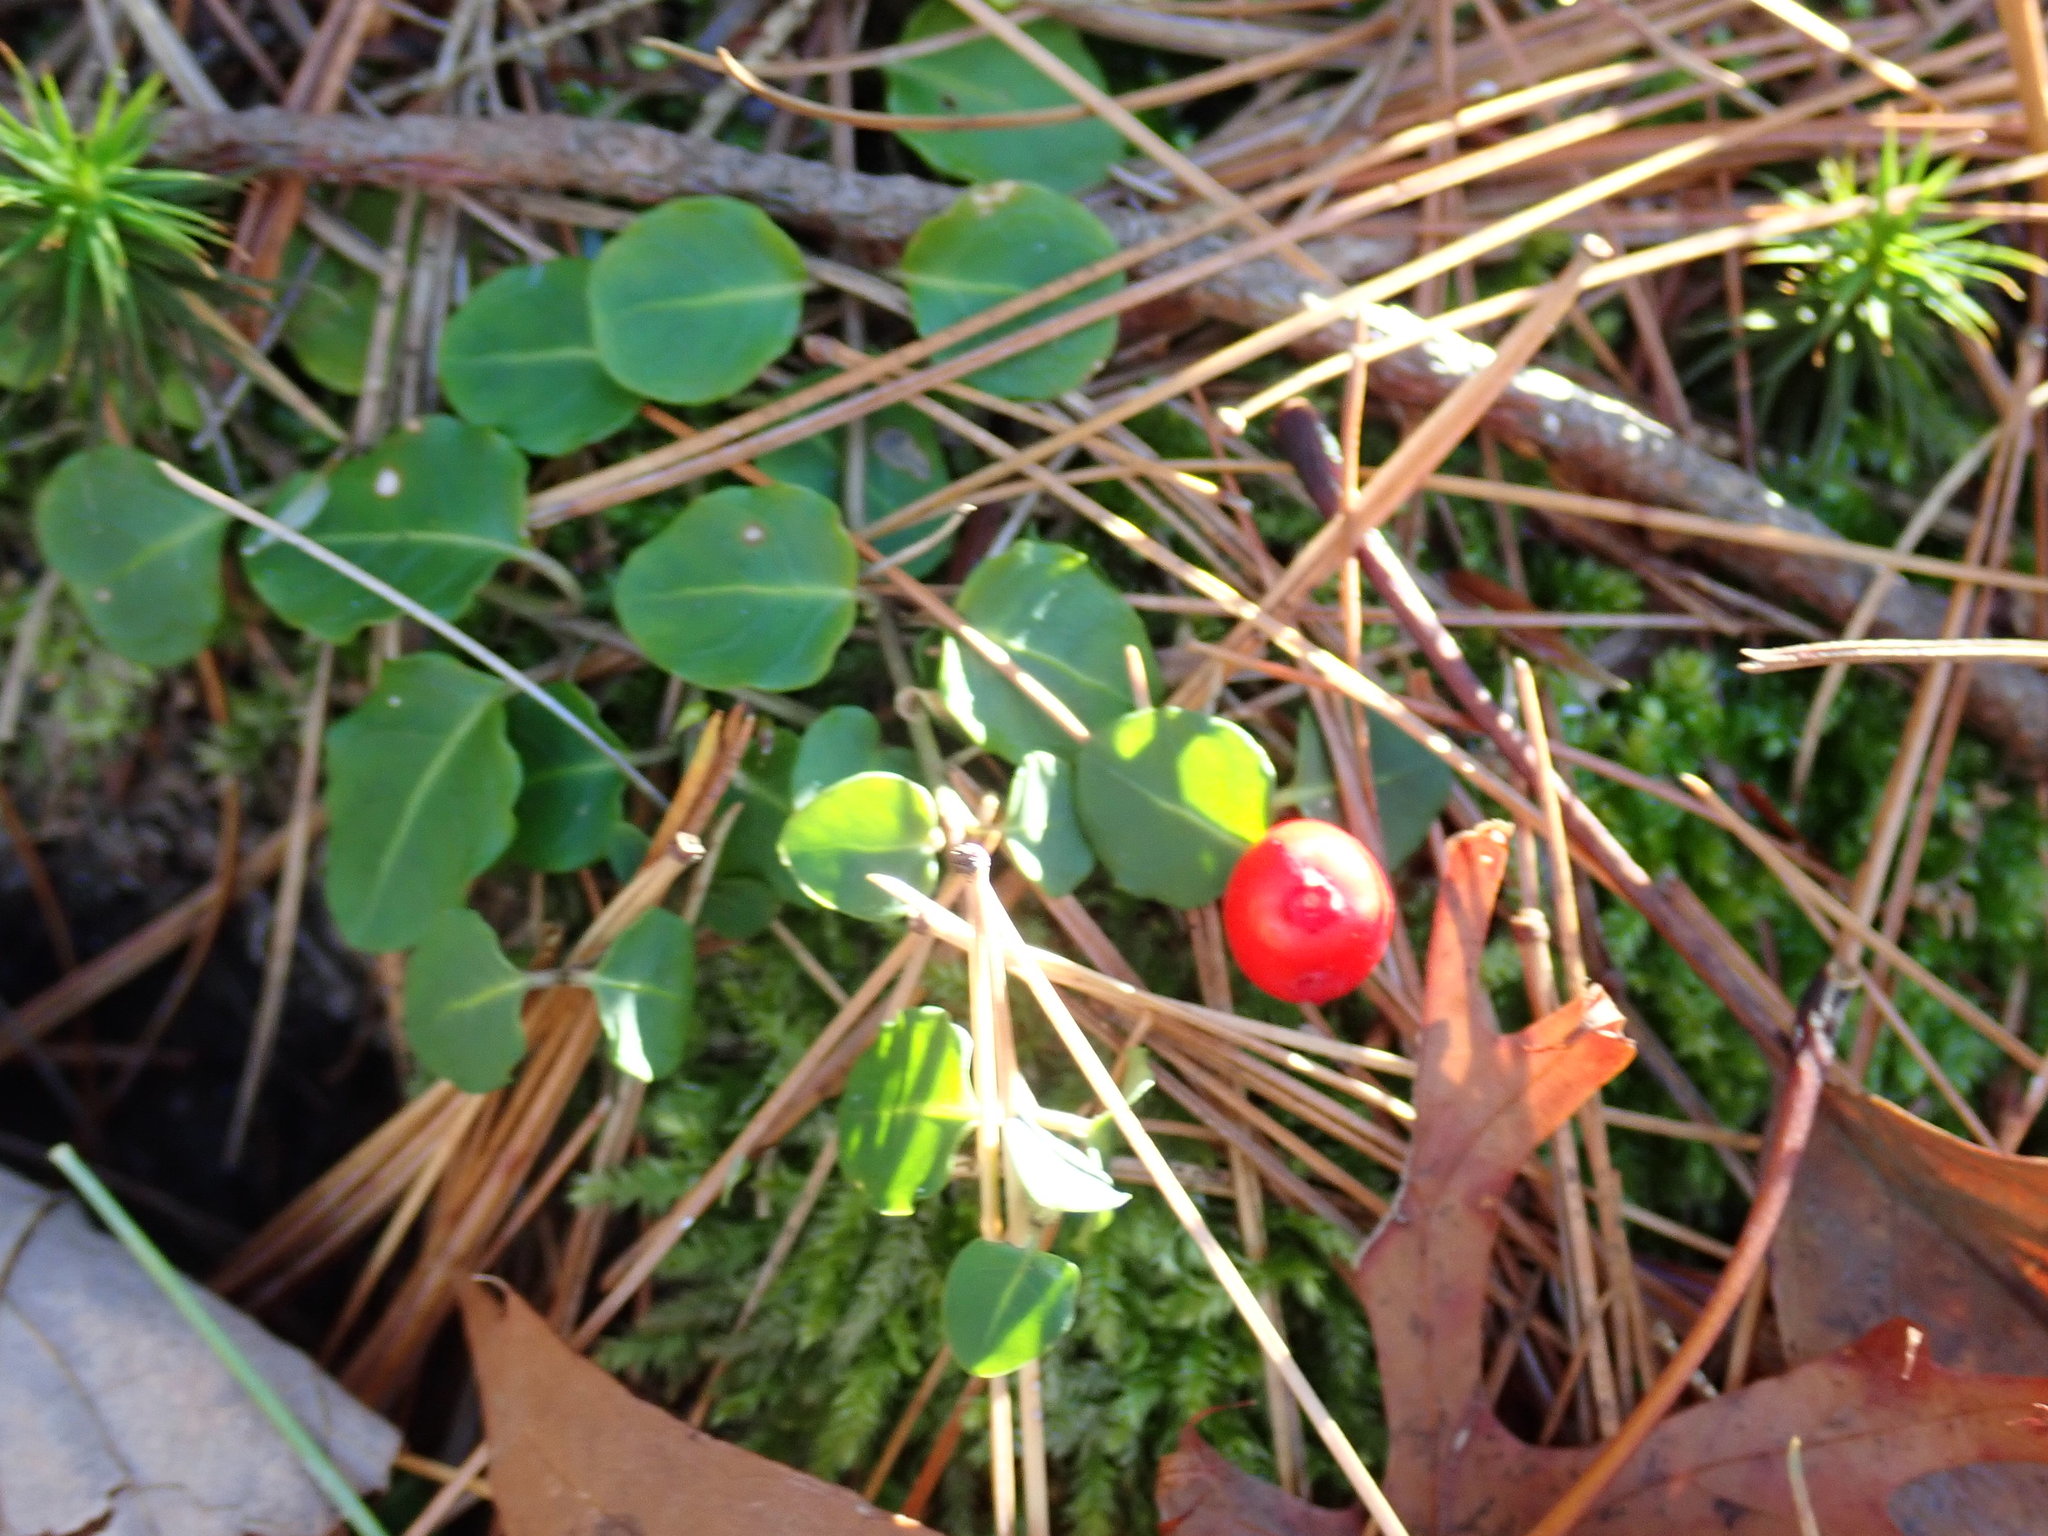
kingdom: Plantae
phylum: Tracheophyta
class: Magnoliopsida
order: Gentianales
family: Rubiaceae
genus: Mitchella
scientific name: Mitchella repens
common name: Partridge-berry
